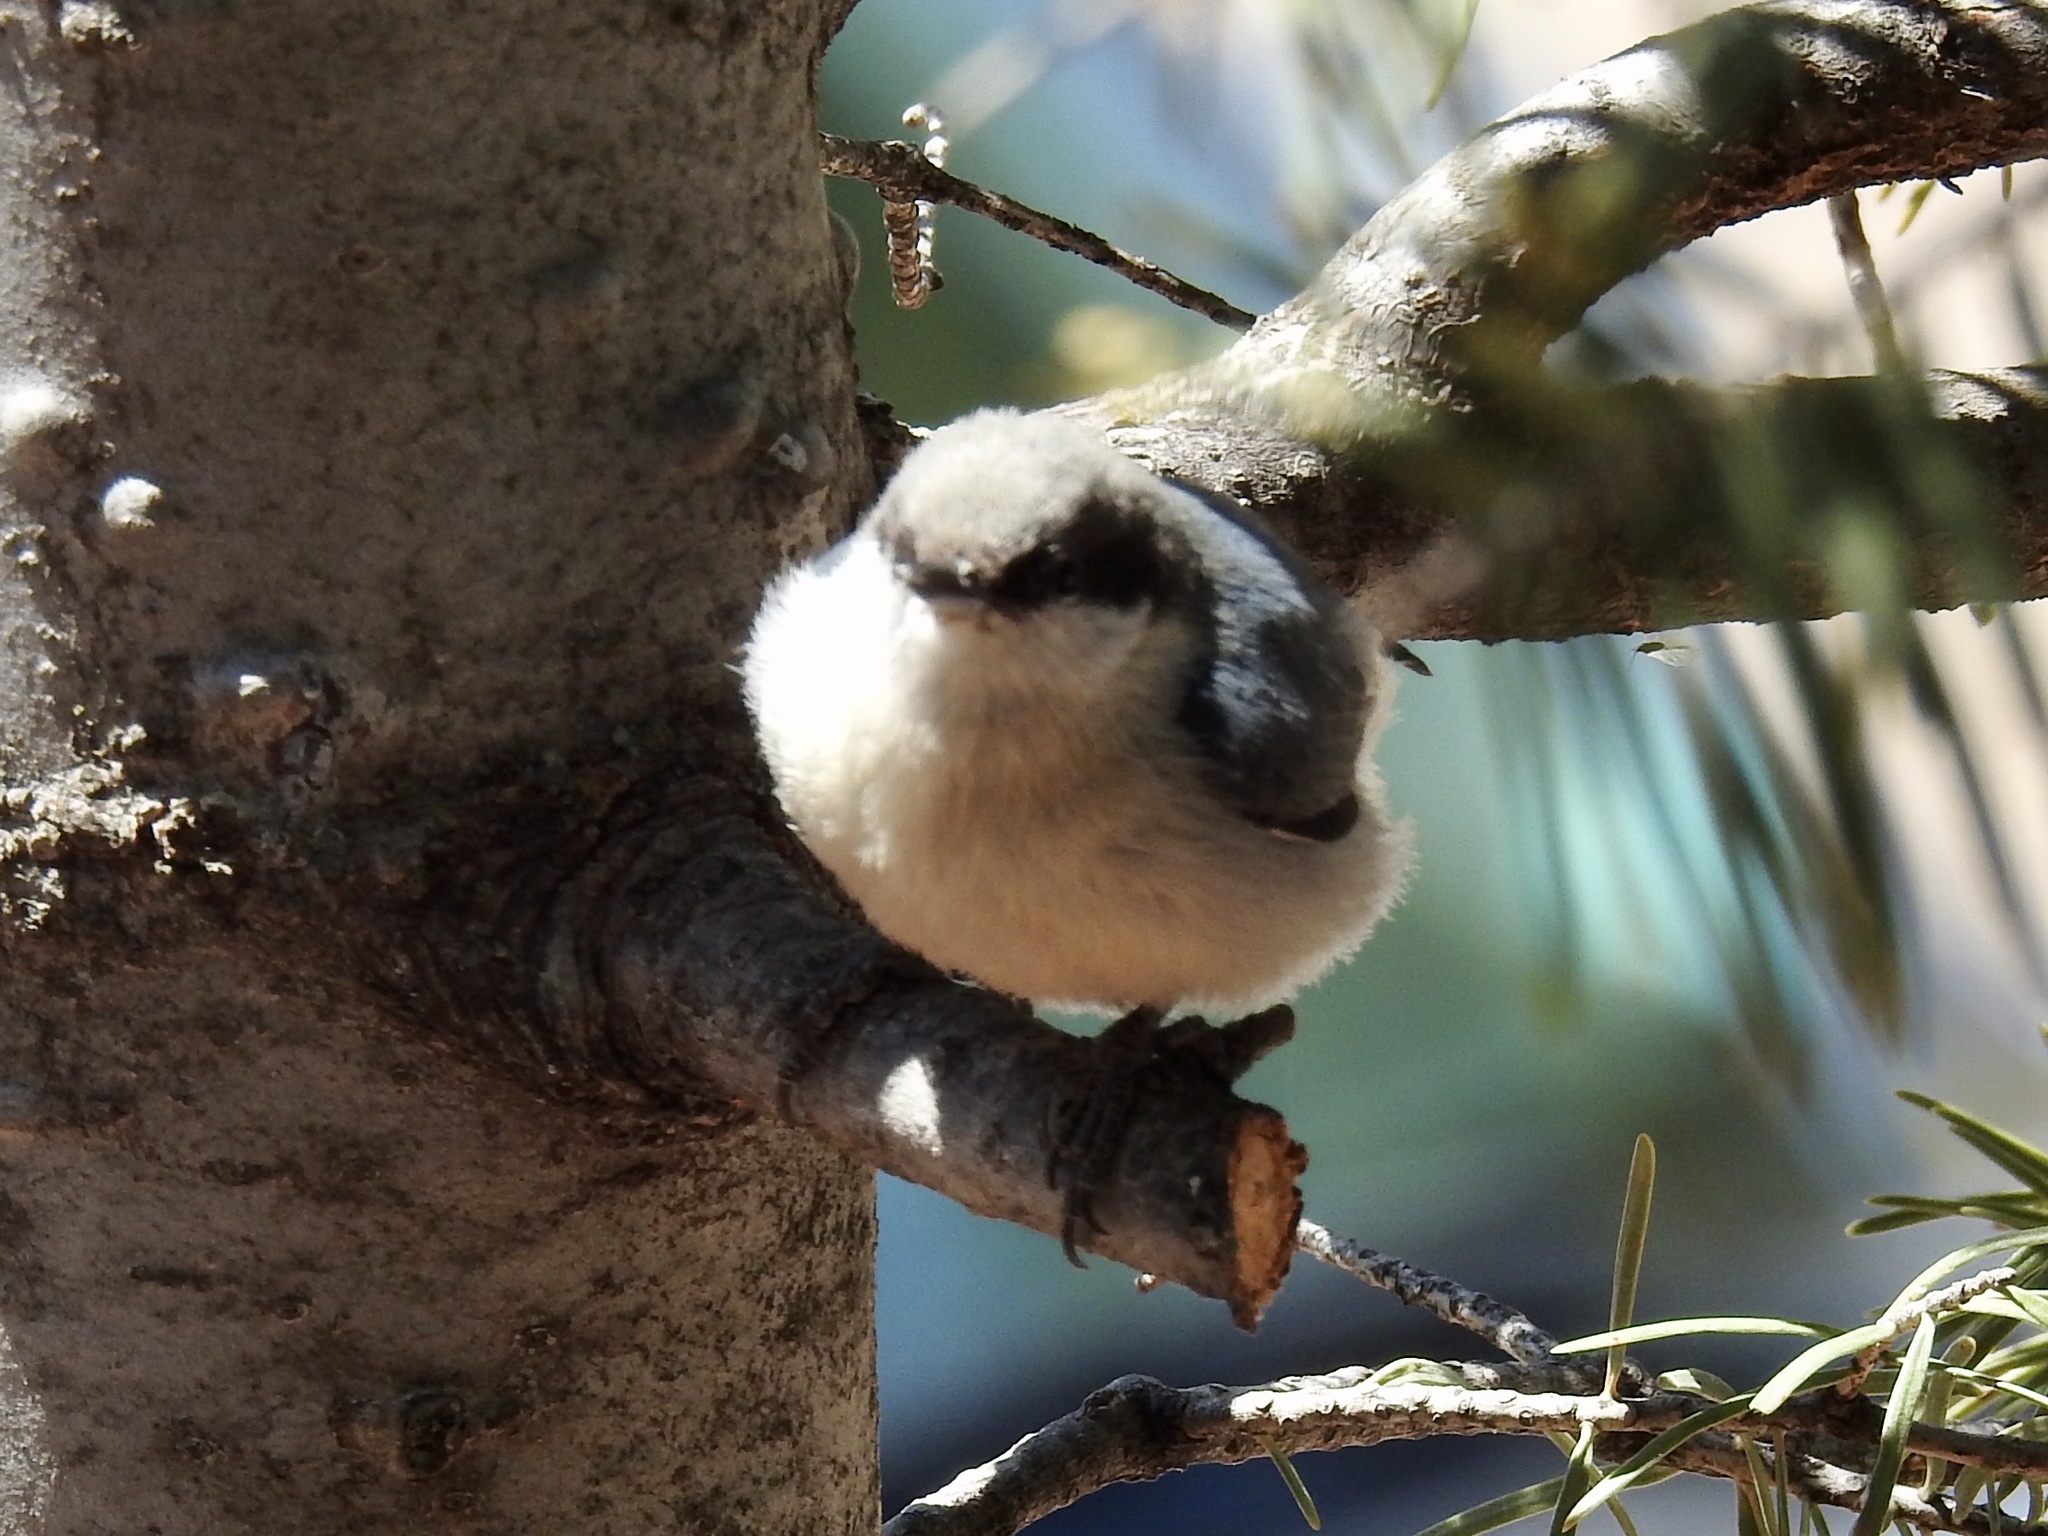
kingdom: Animalia
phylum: Chordata
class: Aves
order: Passeriformes
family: Sittidae
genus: Sitta
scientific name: Sitta pygmaea
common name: Pygmy nuthatch
